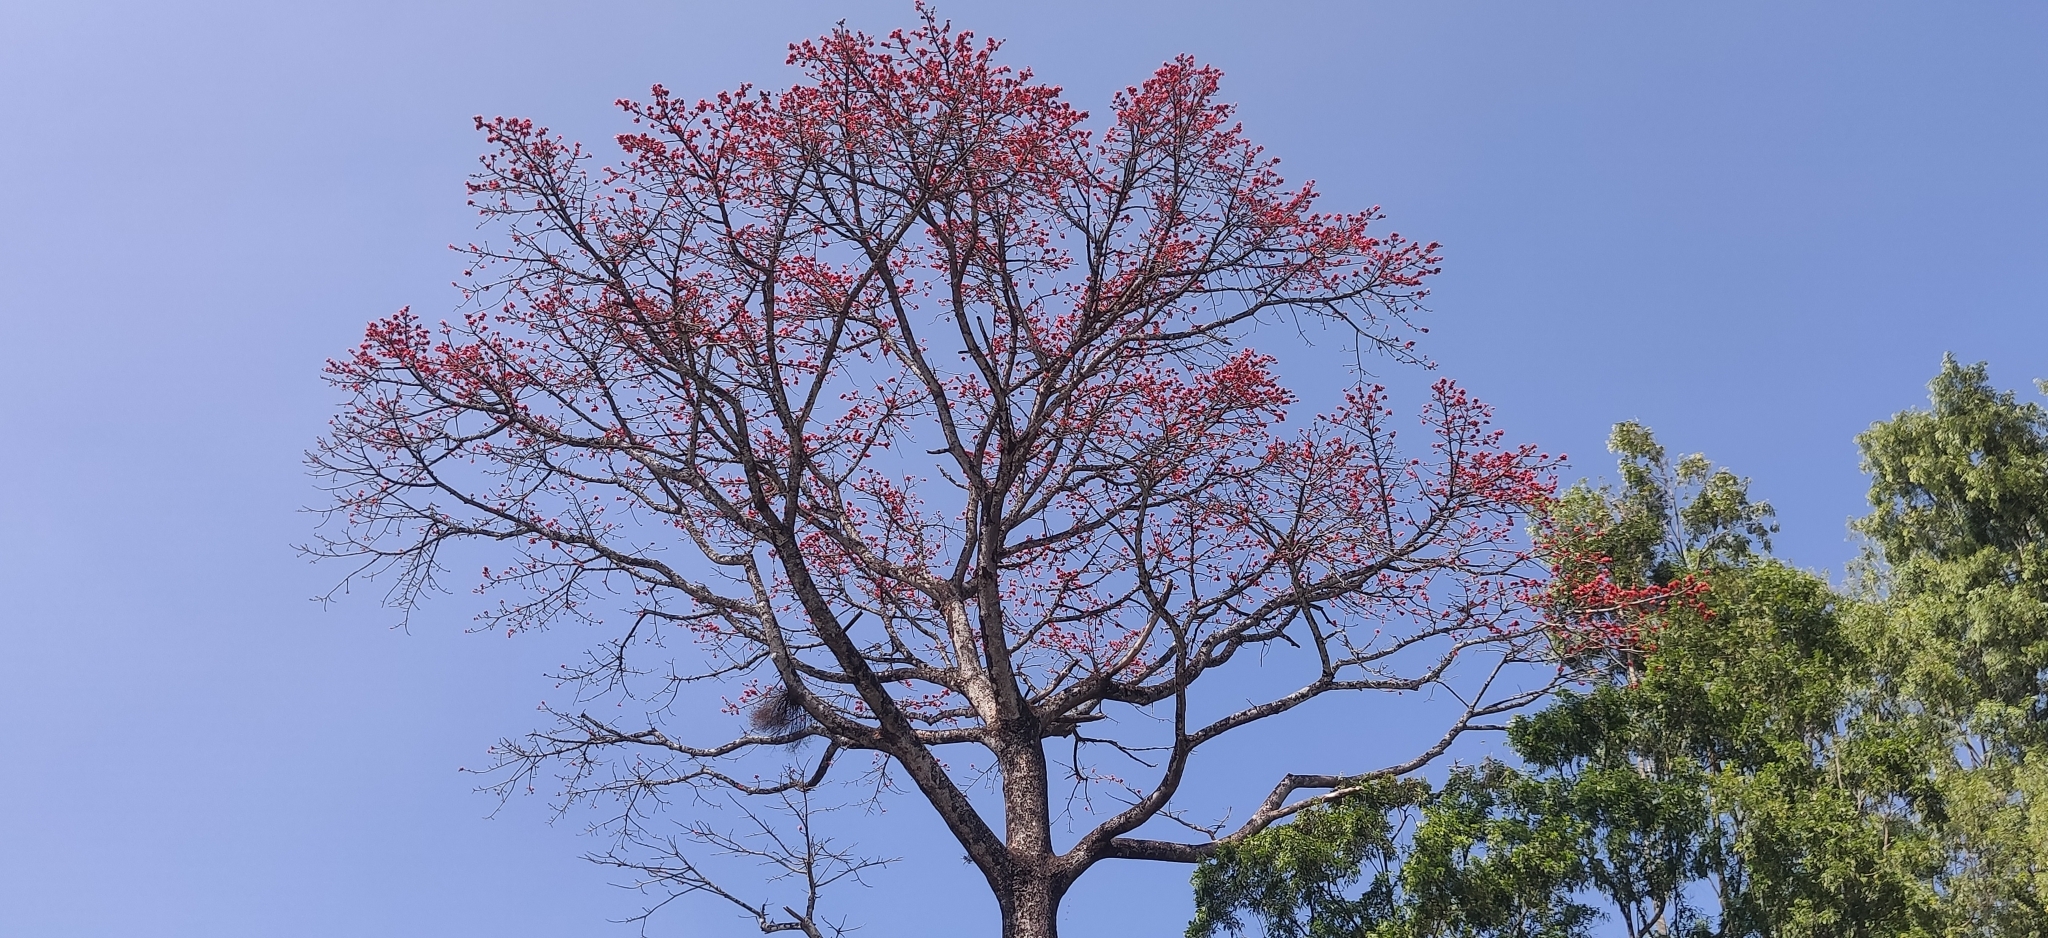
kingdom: Plantae
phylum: Tracheophyta
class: Magnoliopsida
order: Malvales
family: Malvaceae
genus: Bombax
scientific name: Bombax ceiba
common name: Northern-cottonwood
